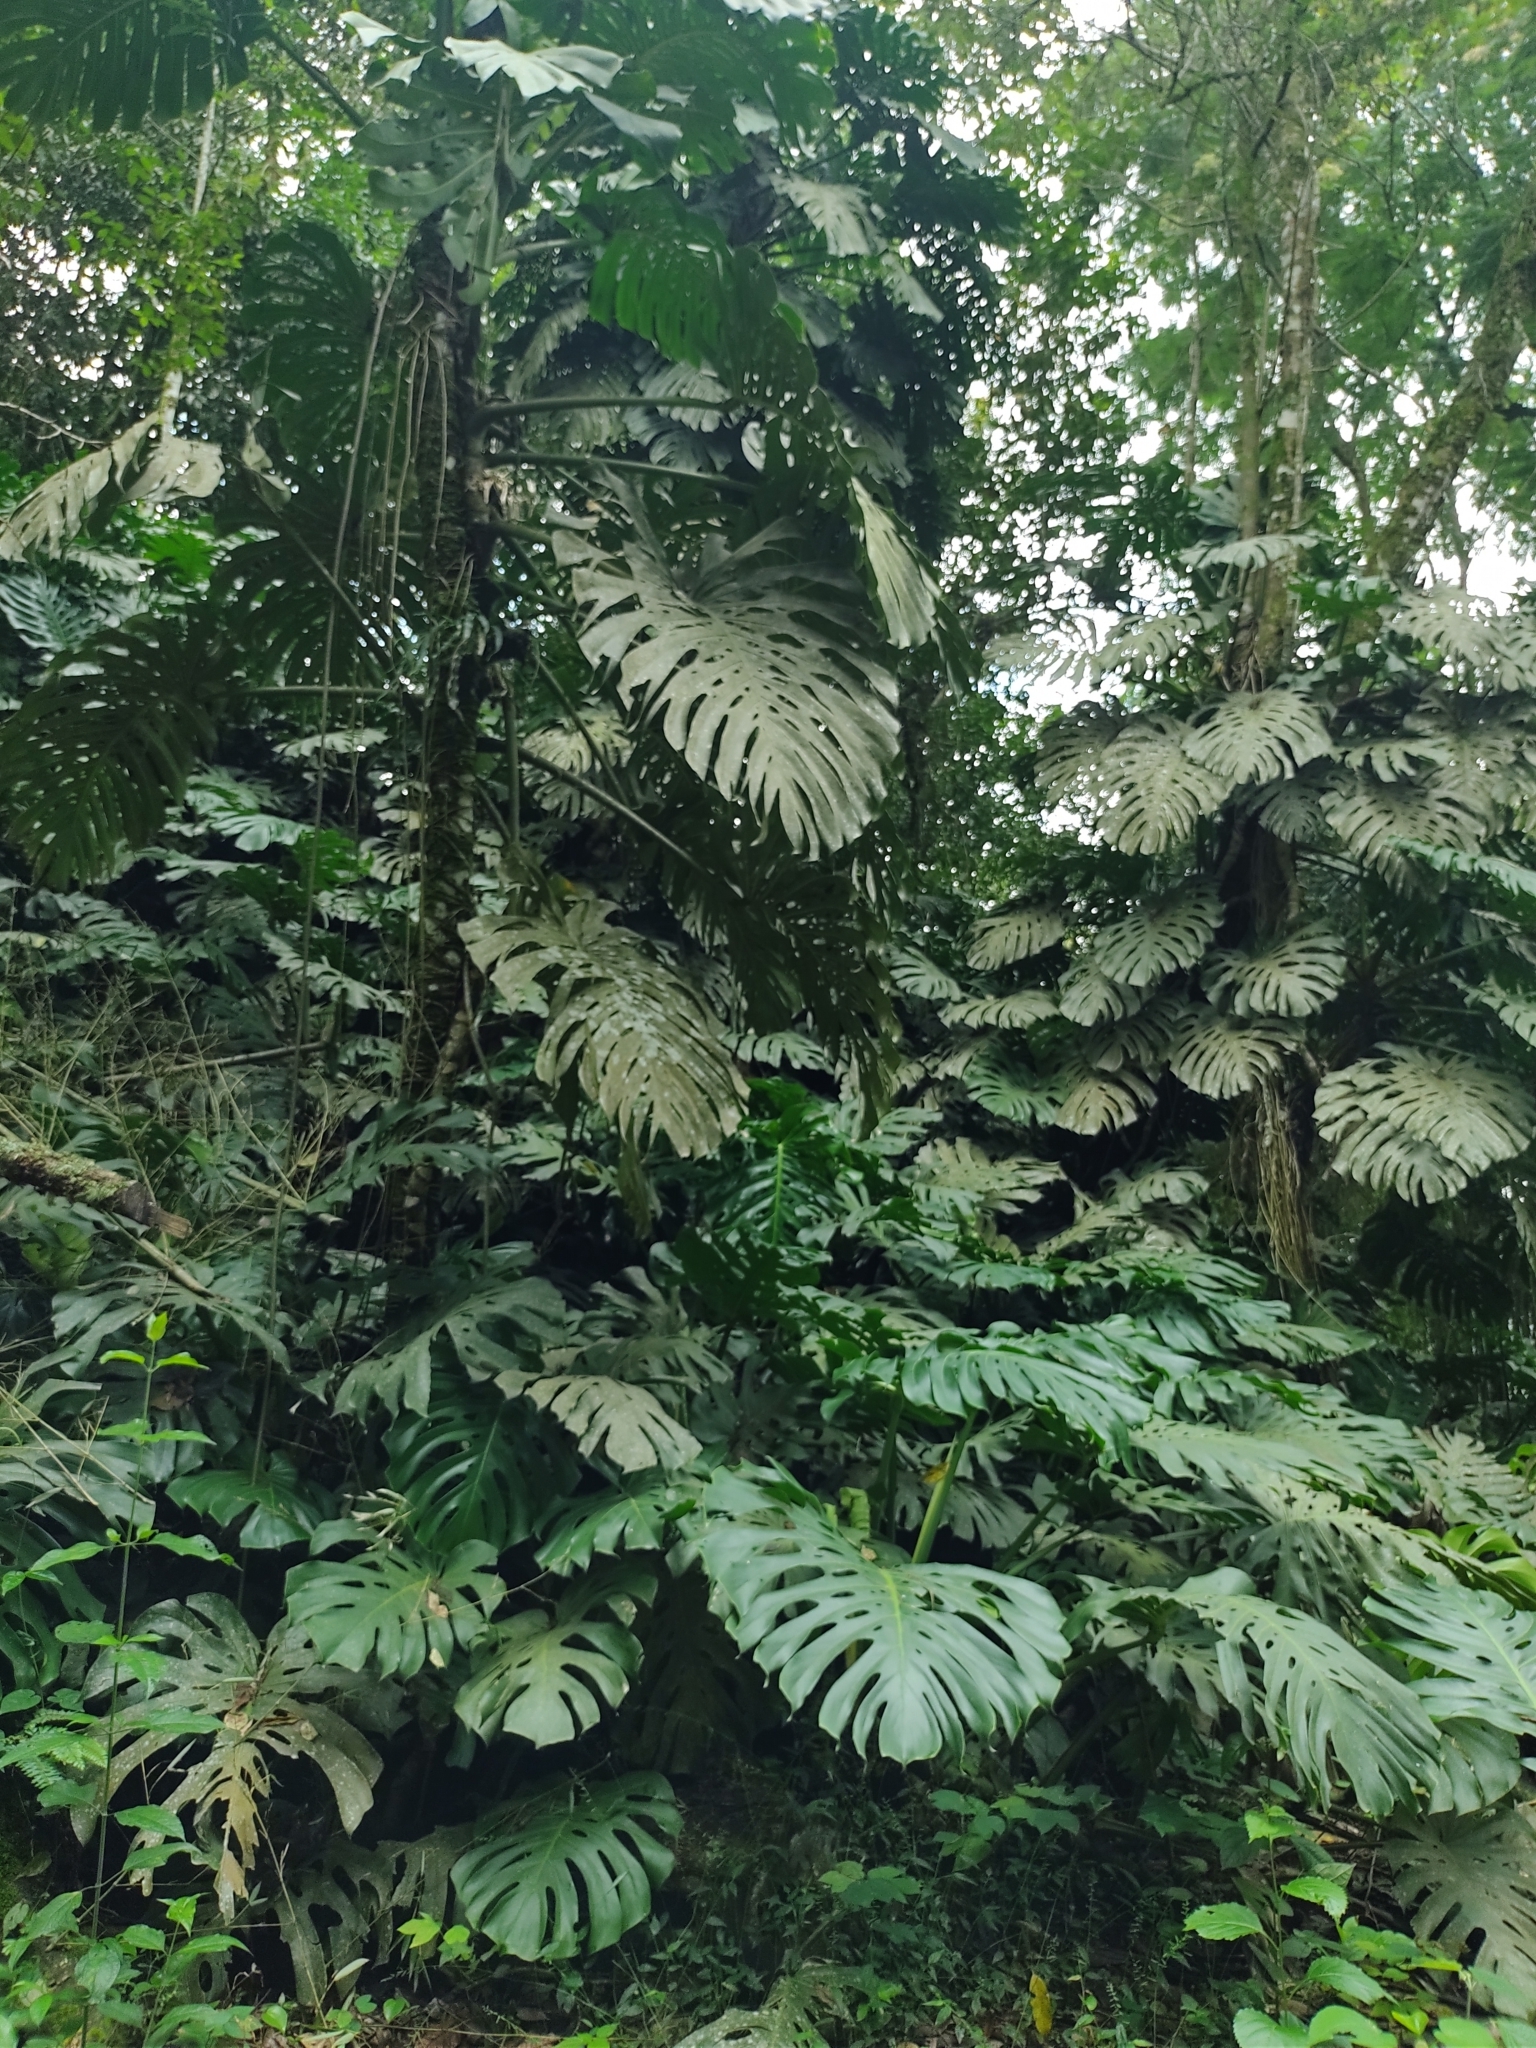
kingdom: Plantae
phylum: Tracheophyta
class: Liliopsida
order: Alismatales
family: Araceae
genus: Monstera
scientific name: Monstera deliciosa
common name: Cut-leaf-philodendron
